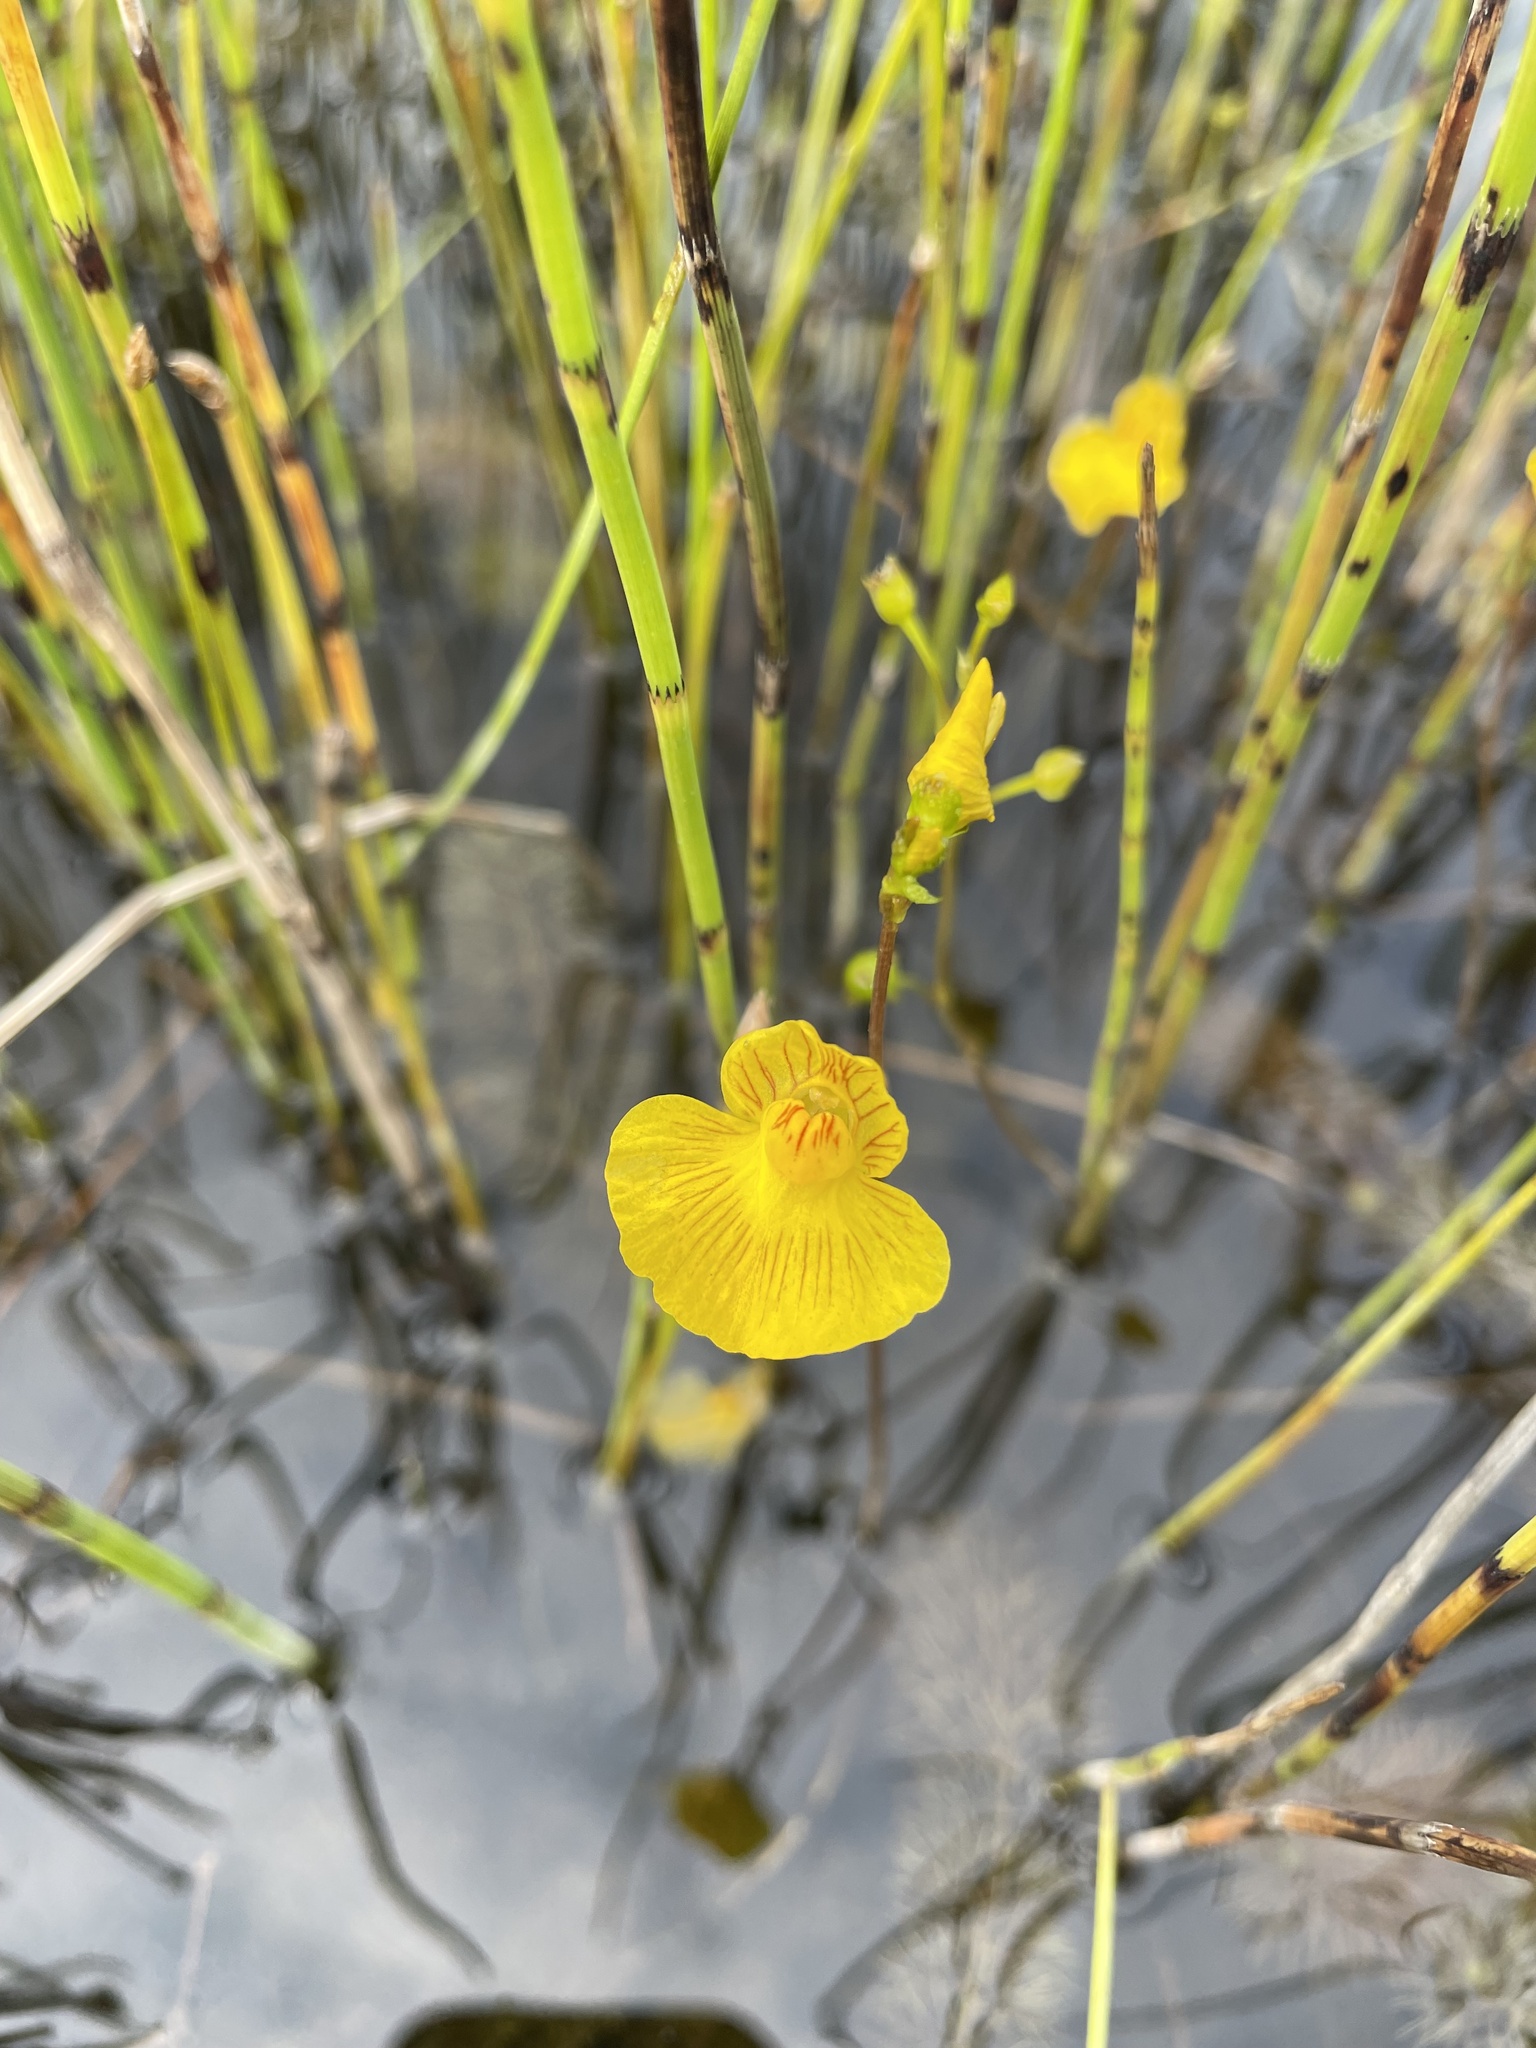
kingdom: Plantae
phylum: Tracheophyta
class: Magnoliopsida
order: Lamiales
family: Lentibulariaceae
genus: Utricularia
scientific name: Utricularia intermedia
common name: Intermediate bladderwort
